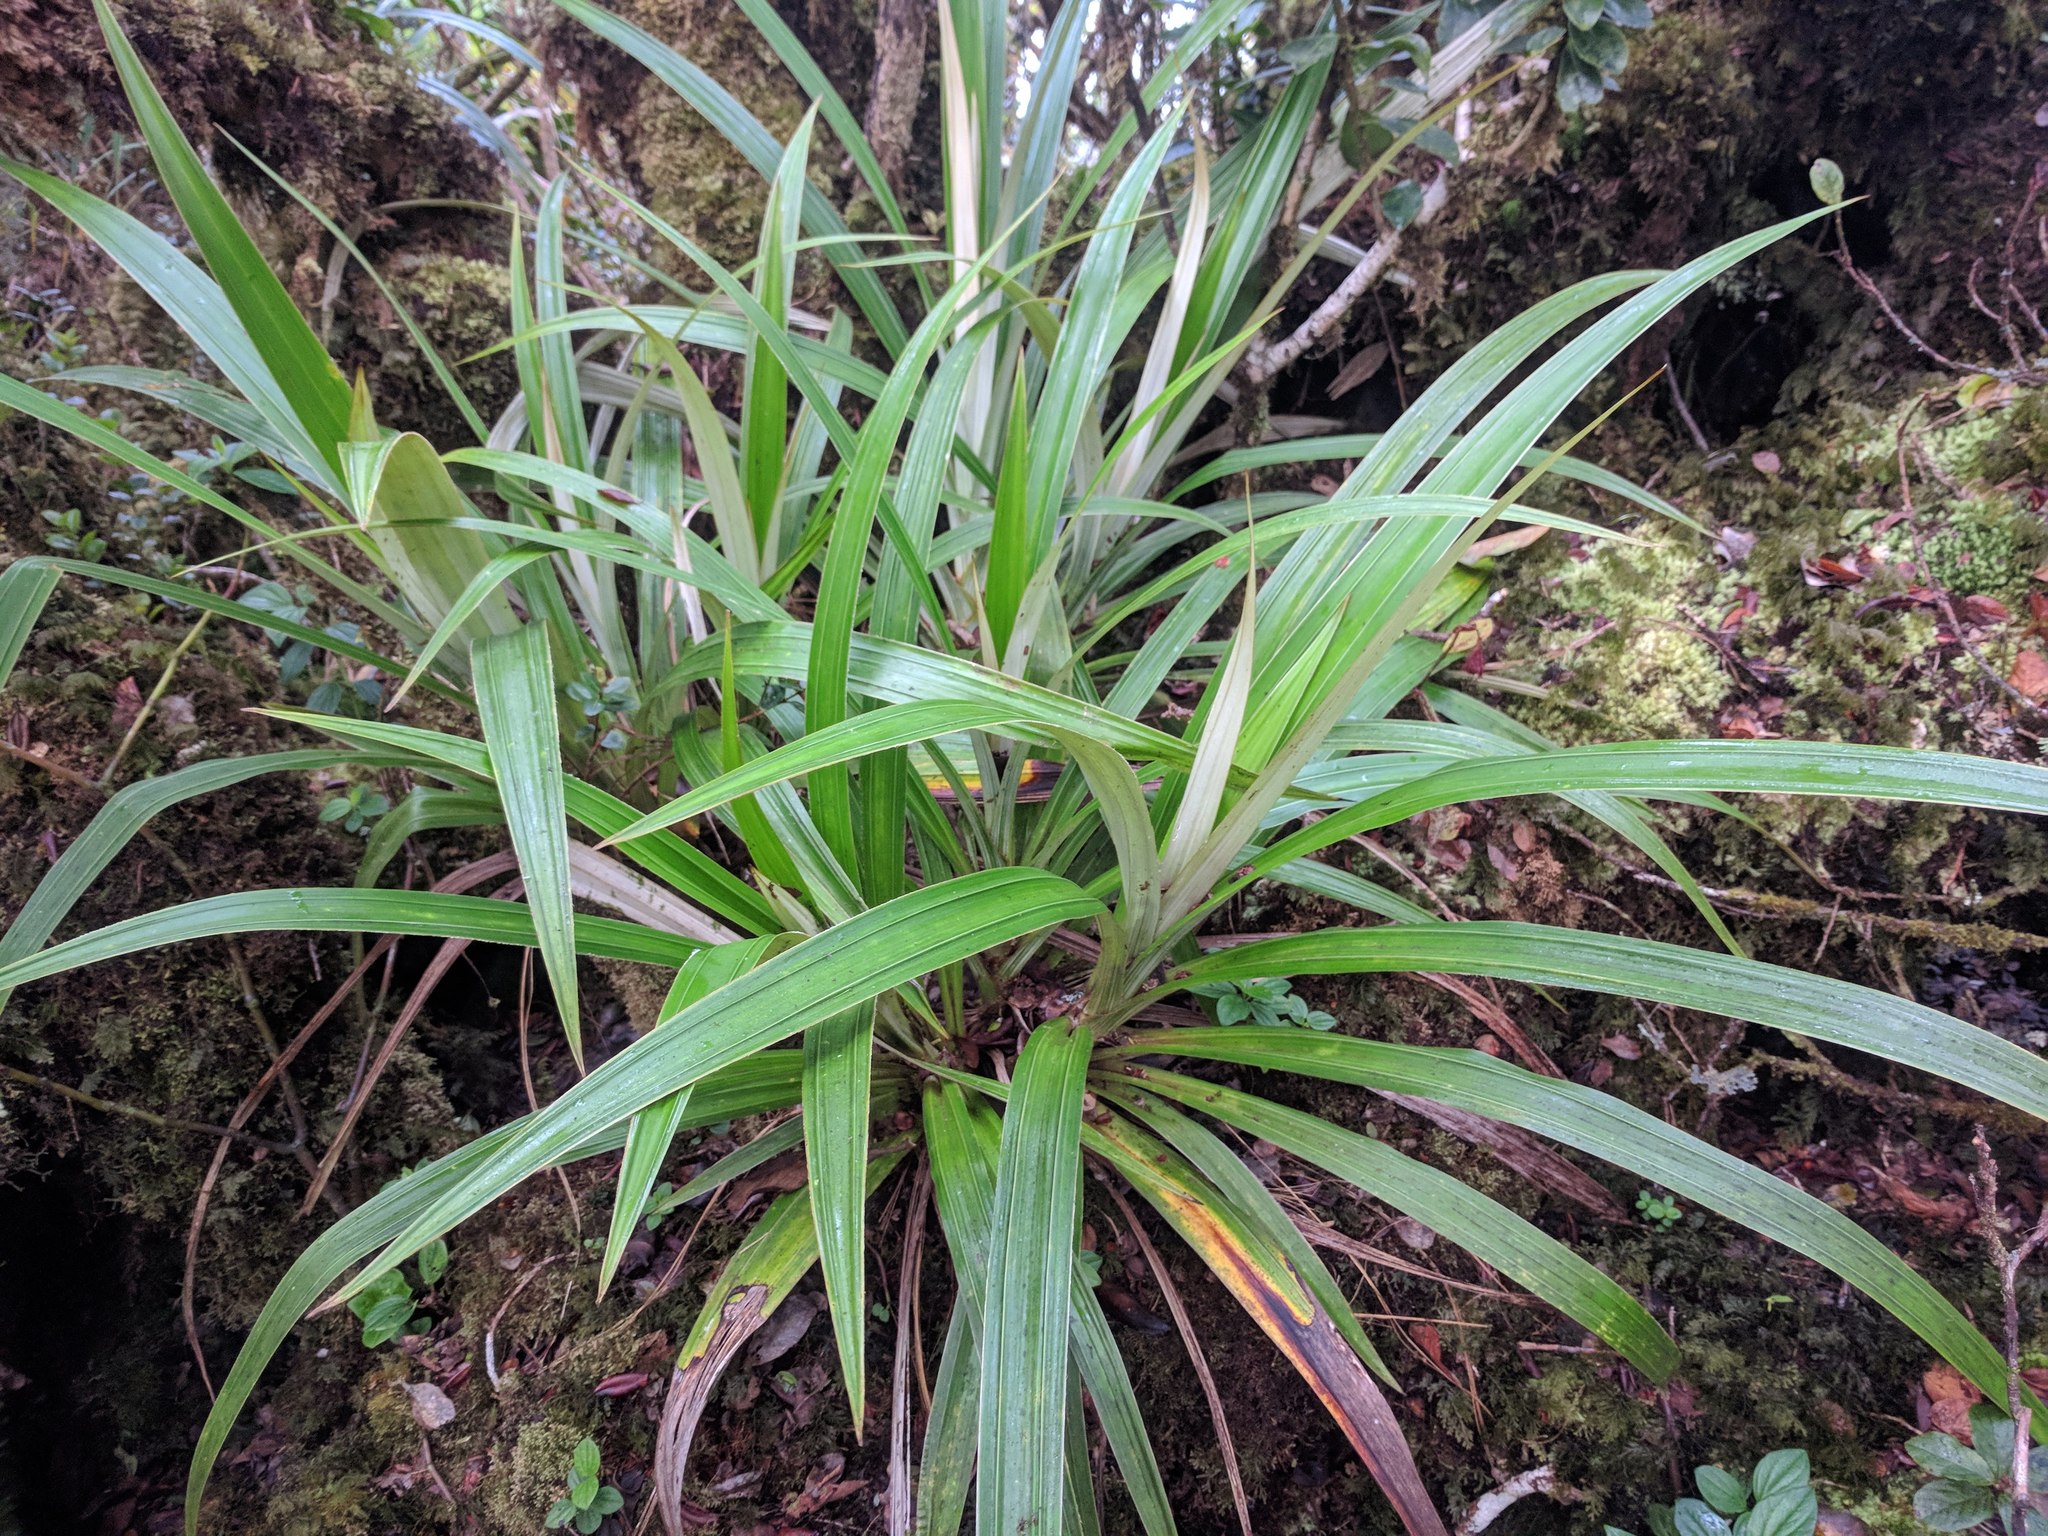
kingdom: Plantae
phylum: Tracheophyta
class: Liliopsida
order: Asparagales
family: Asteliaceae
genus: Astelia
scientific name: Astelia menziesiana
